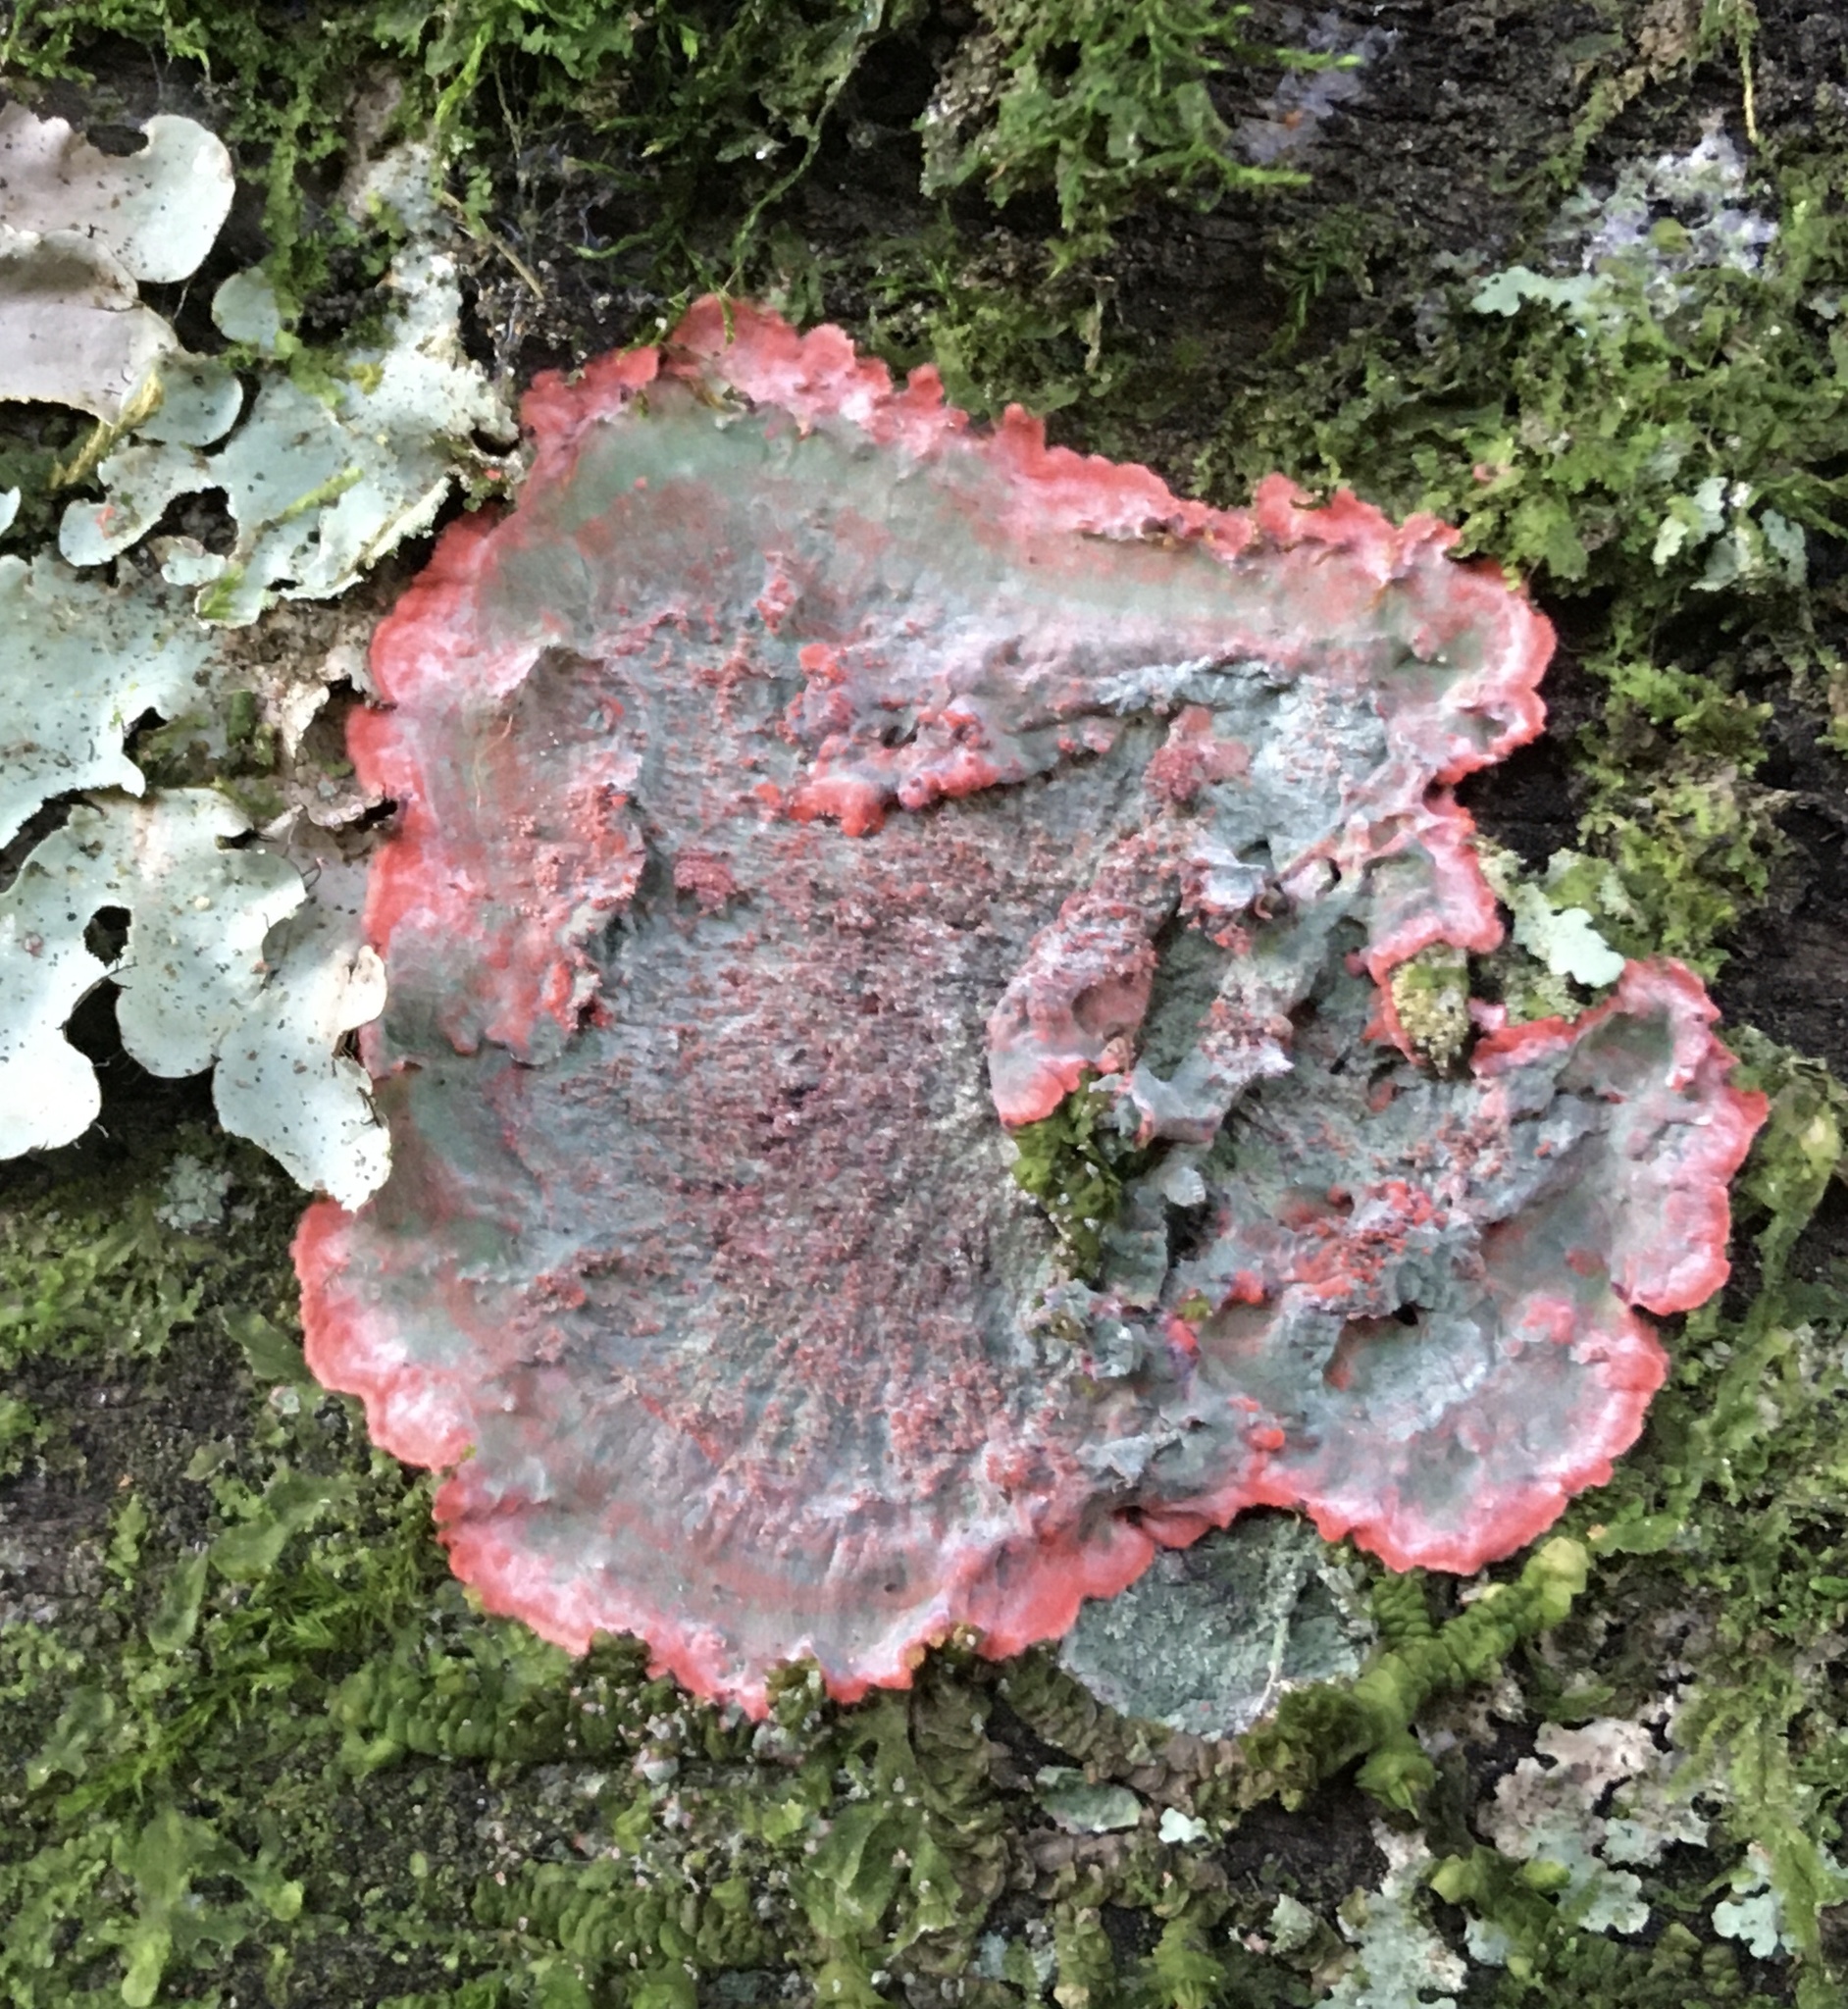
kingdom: Fungi
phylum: Ascomycota
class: Arthoniomycetes
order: Arthoniales
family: Arthoniaceae
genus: Herpothallon
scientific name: Herpothallon rubrocinctum
